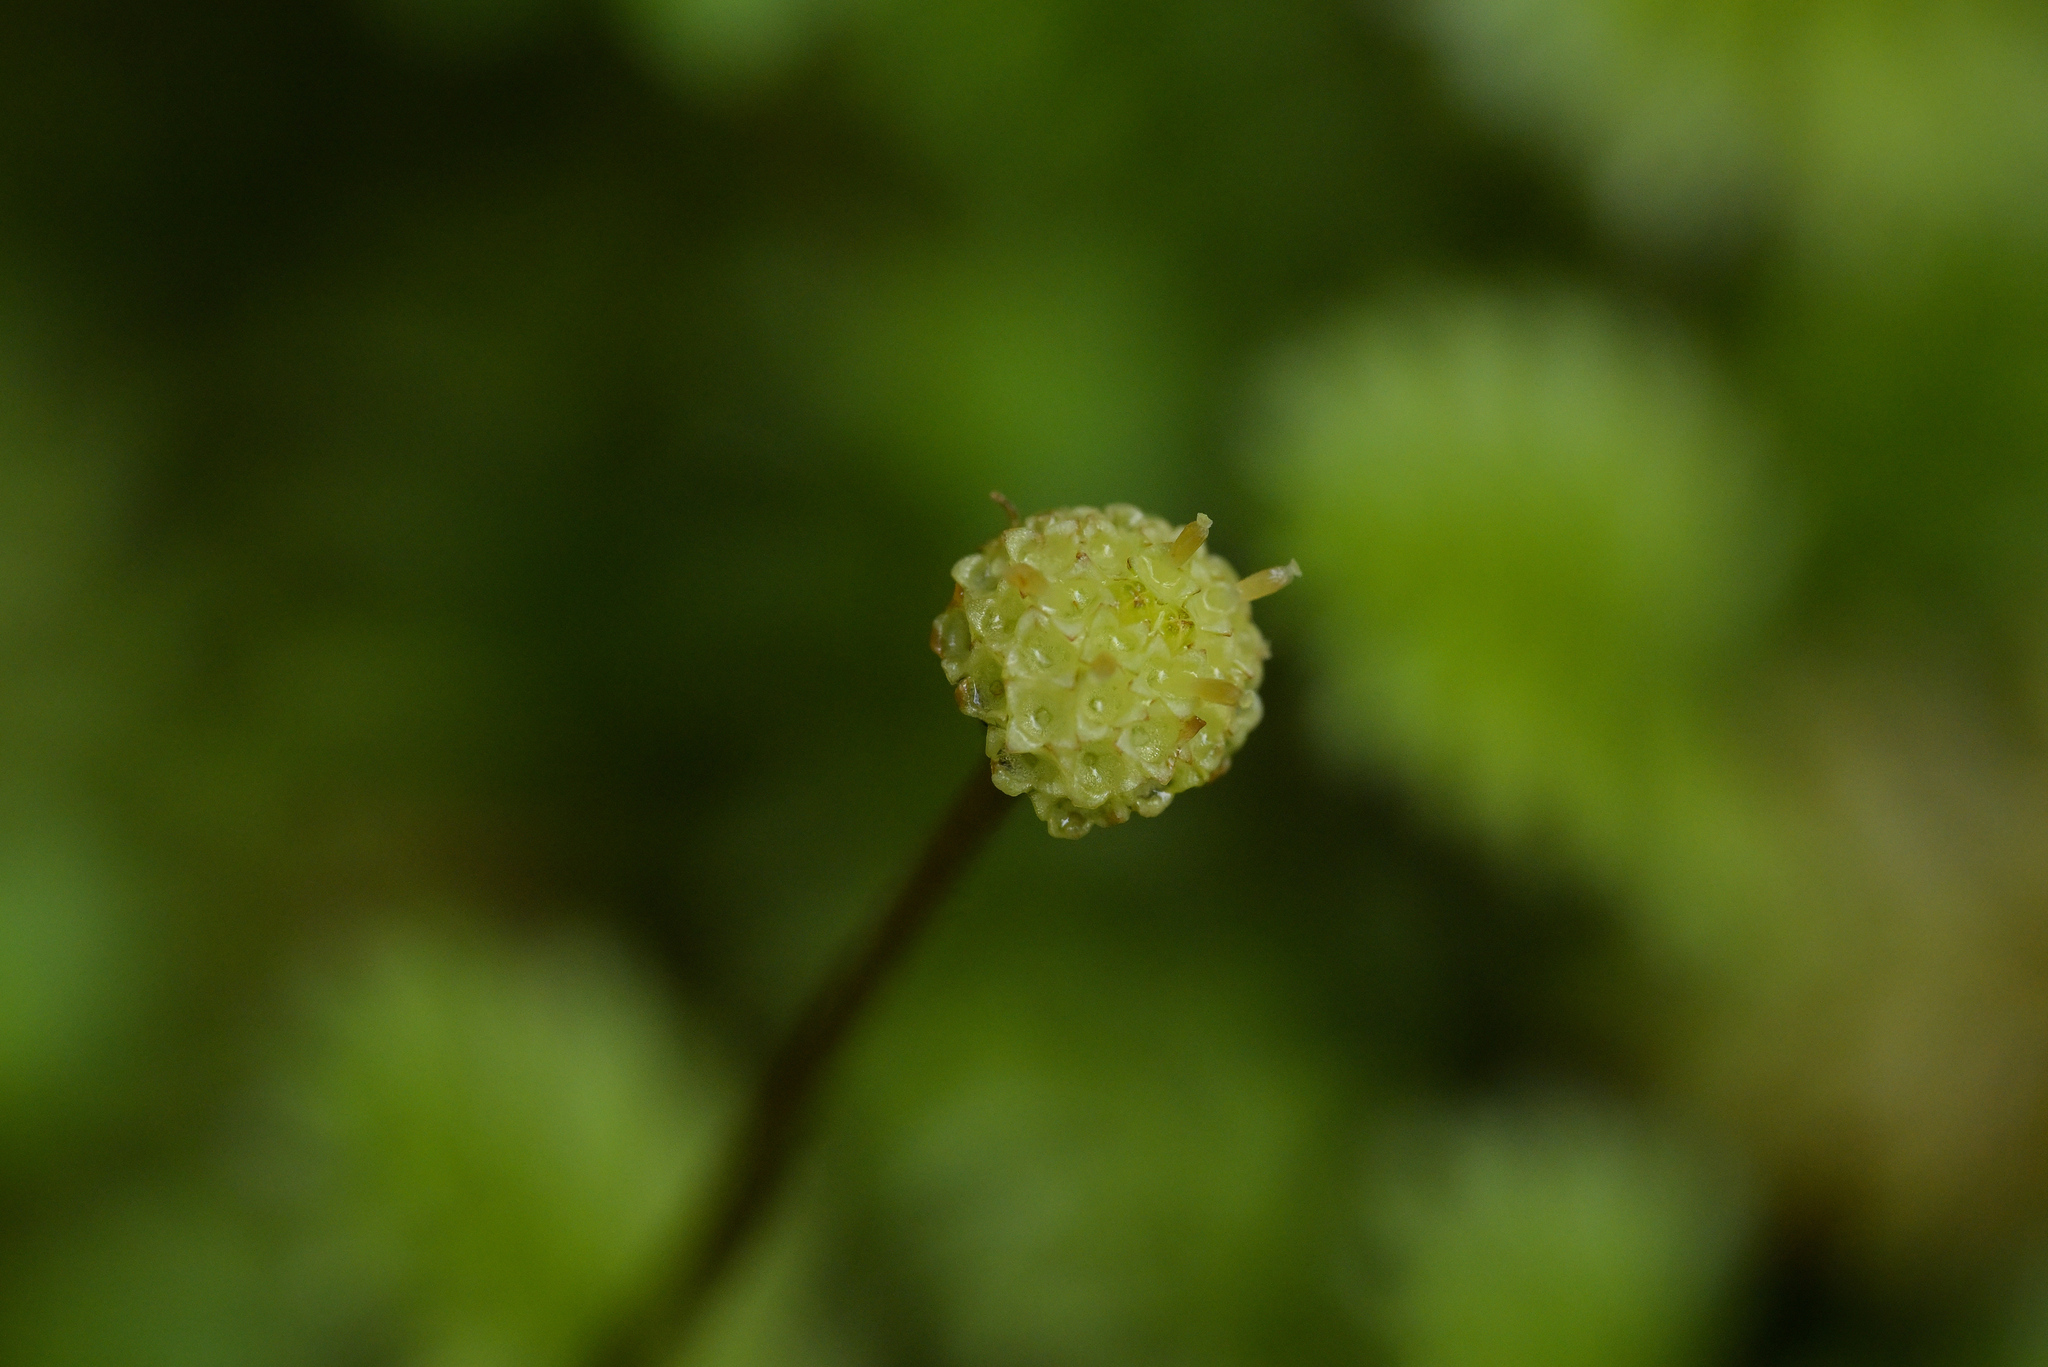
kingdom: Plantae
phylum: Tracheophyta
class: Magnoliopsida
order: Asterales
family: Asteraceae
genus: Leptinella
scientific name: Leptinella squalida
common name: New zealand brass-buttons
